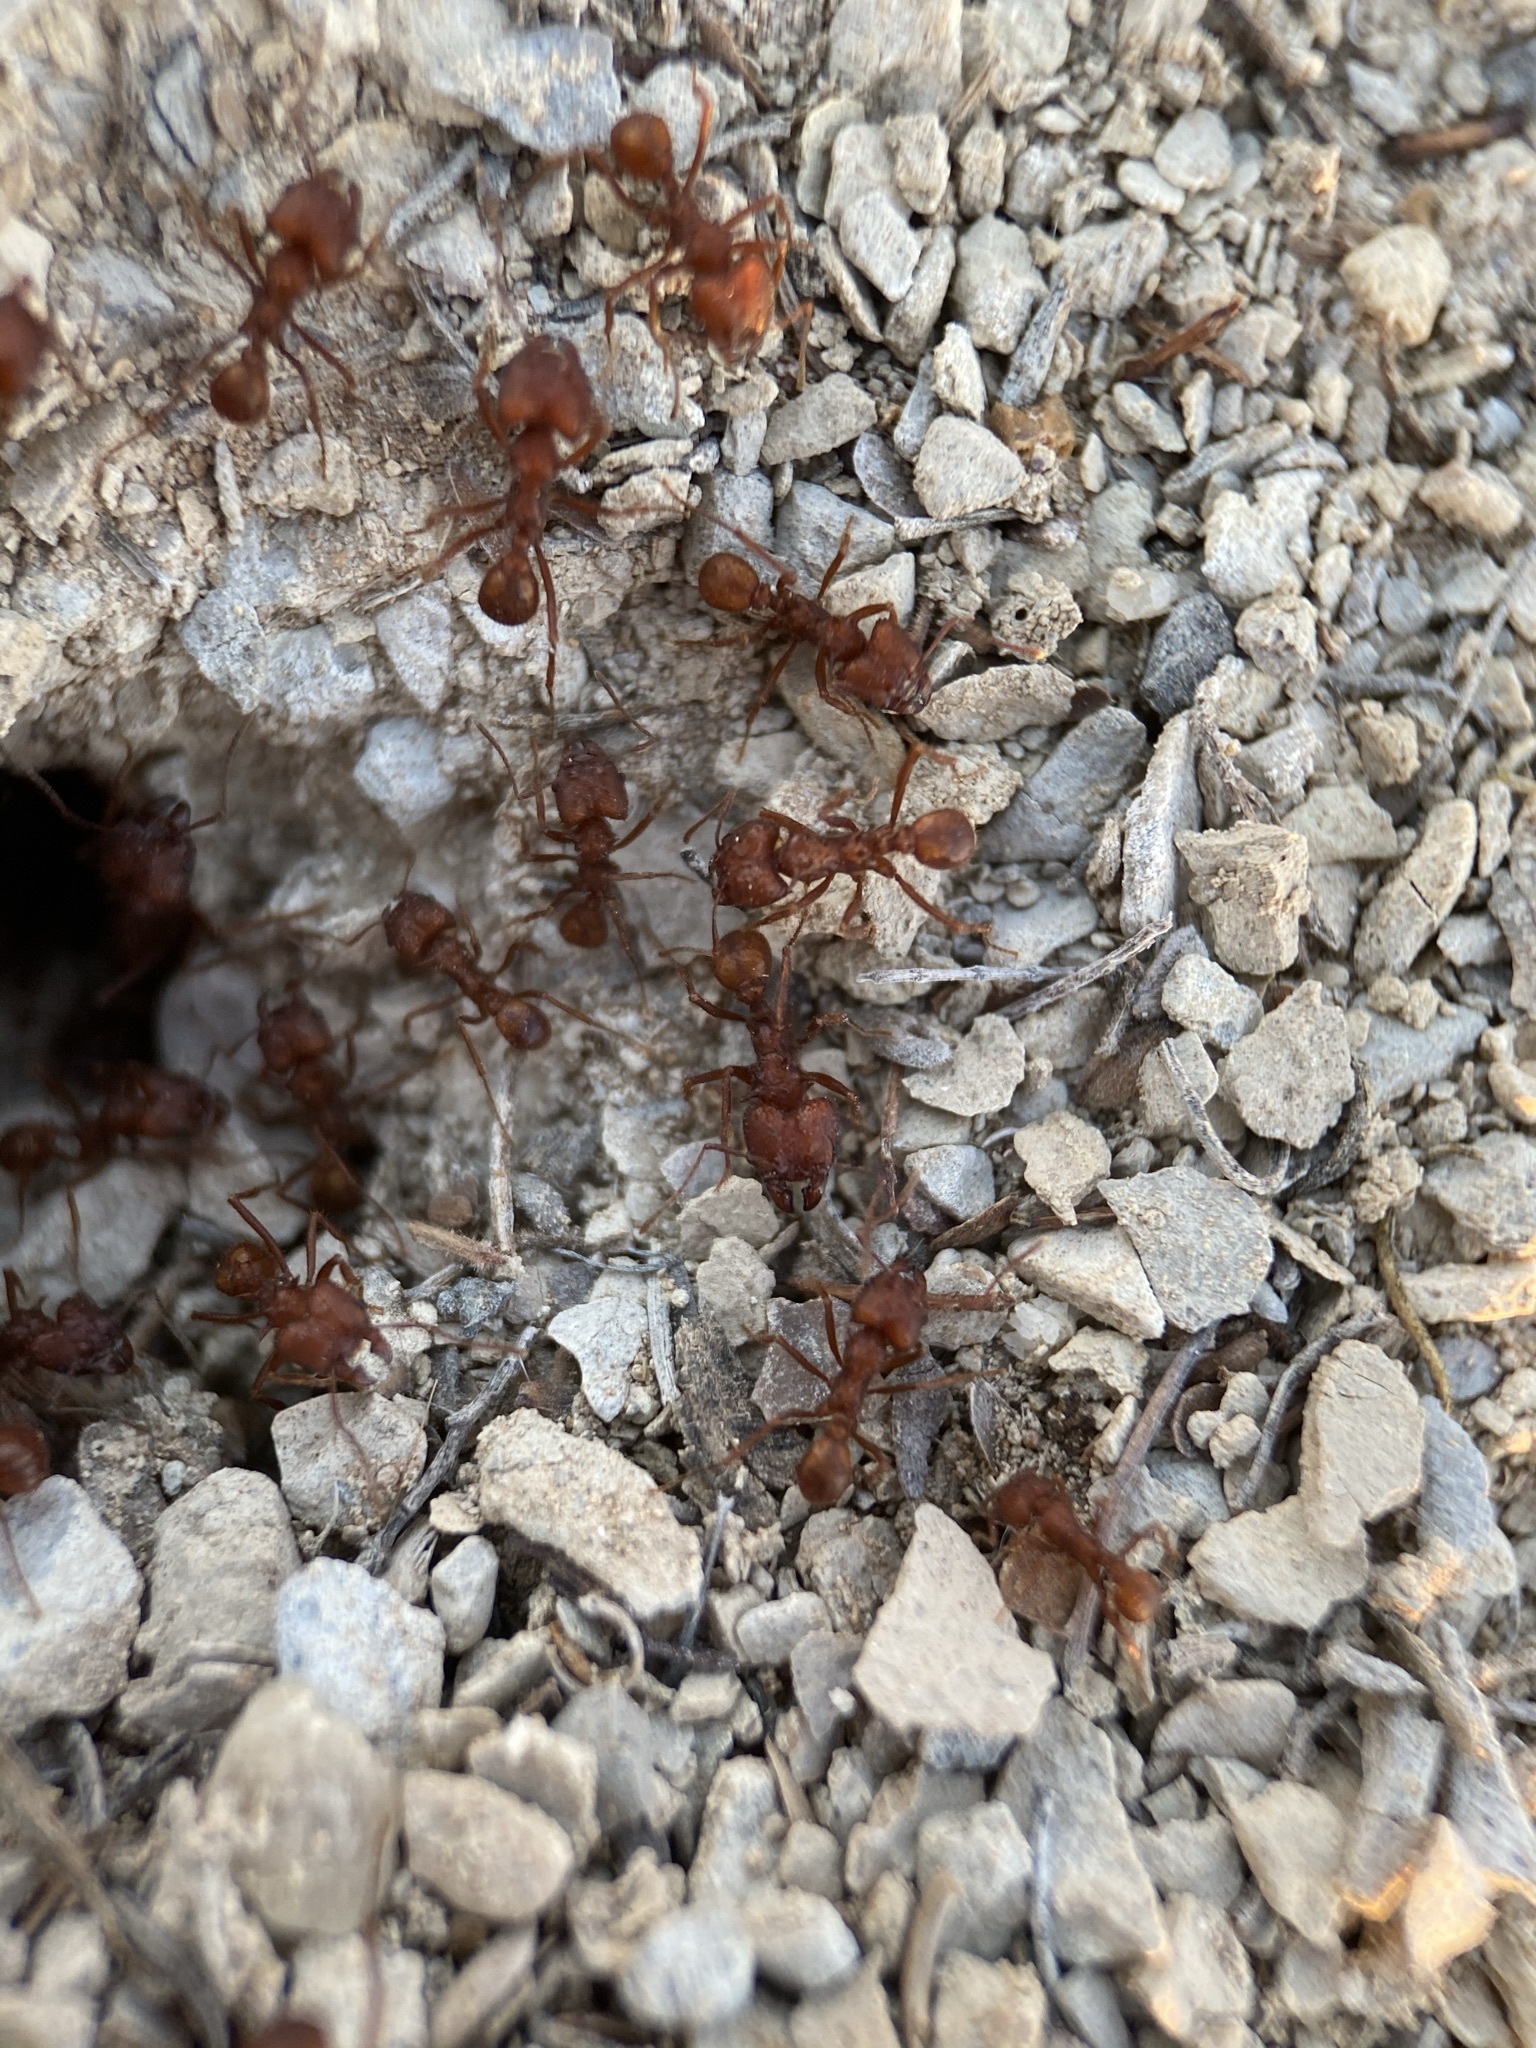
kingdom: Animalia
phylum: Arthropoda
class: Insecta
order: Hymenoptera
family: Formicidae
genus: Acromyrmex
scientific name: Acromyrmex versicolor
